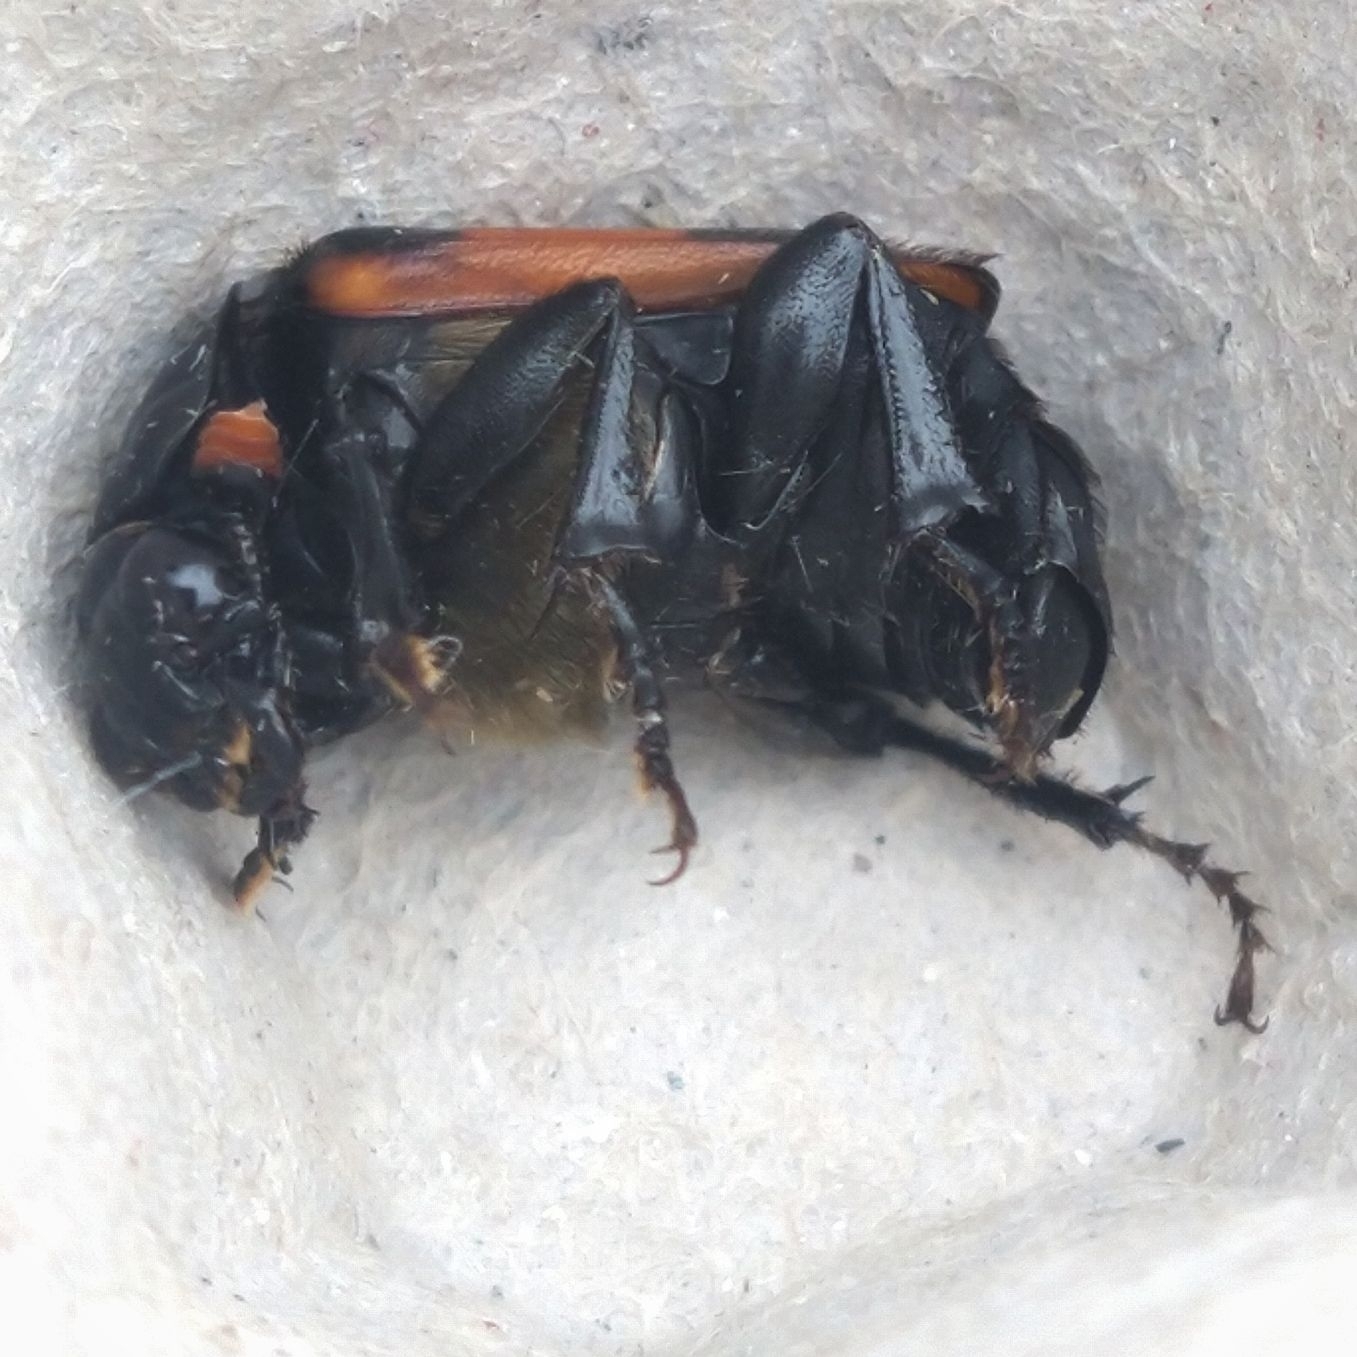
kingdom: Animalia
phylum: Arthropoda
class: Insecta
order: Coleoptera
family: Staphylinidae
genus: Nicrophorus
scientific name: Nicrophorus investigator
